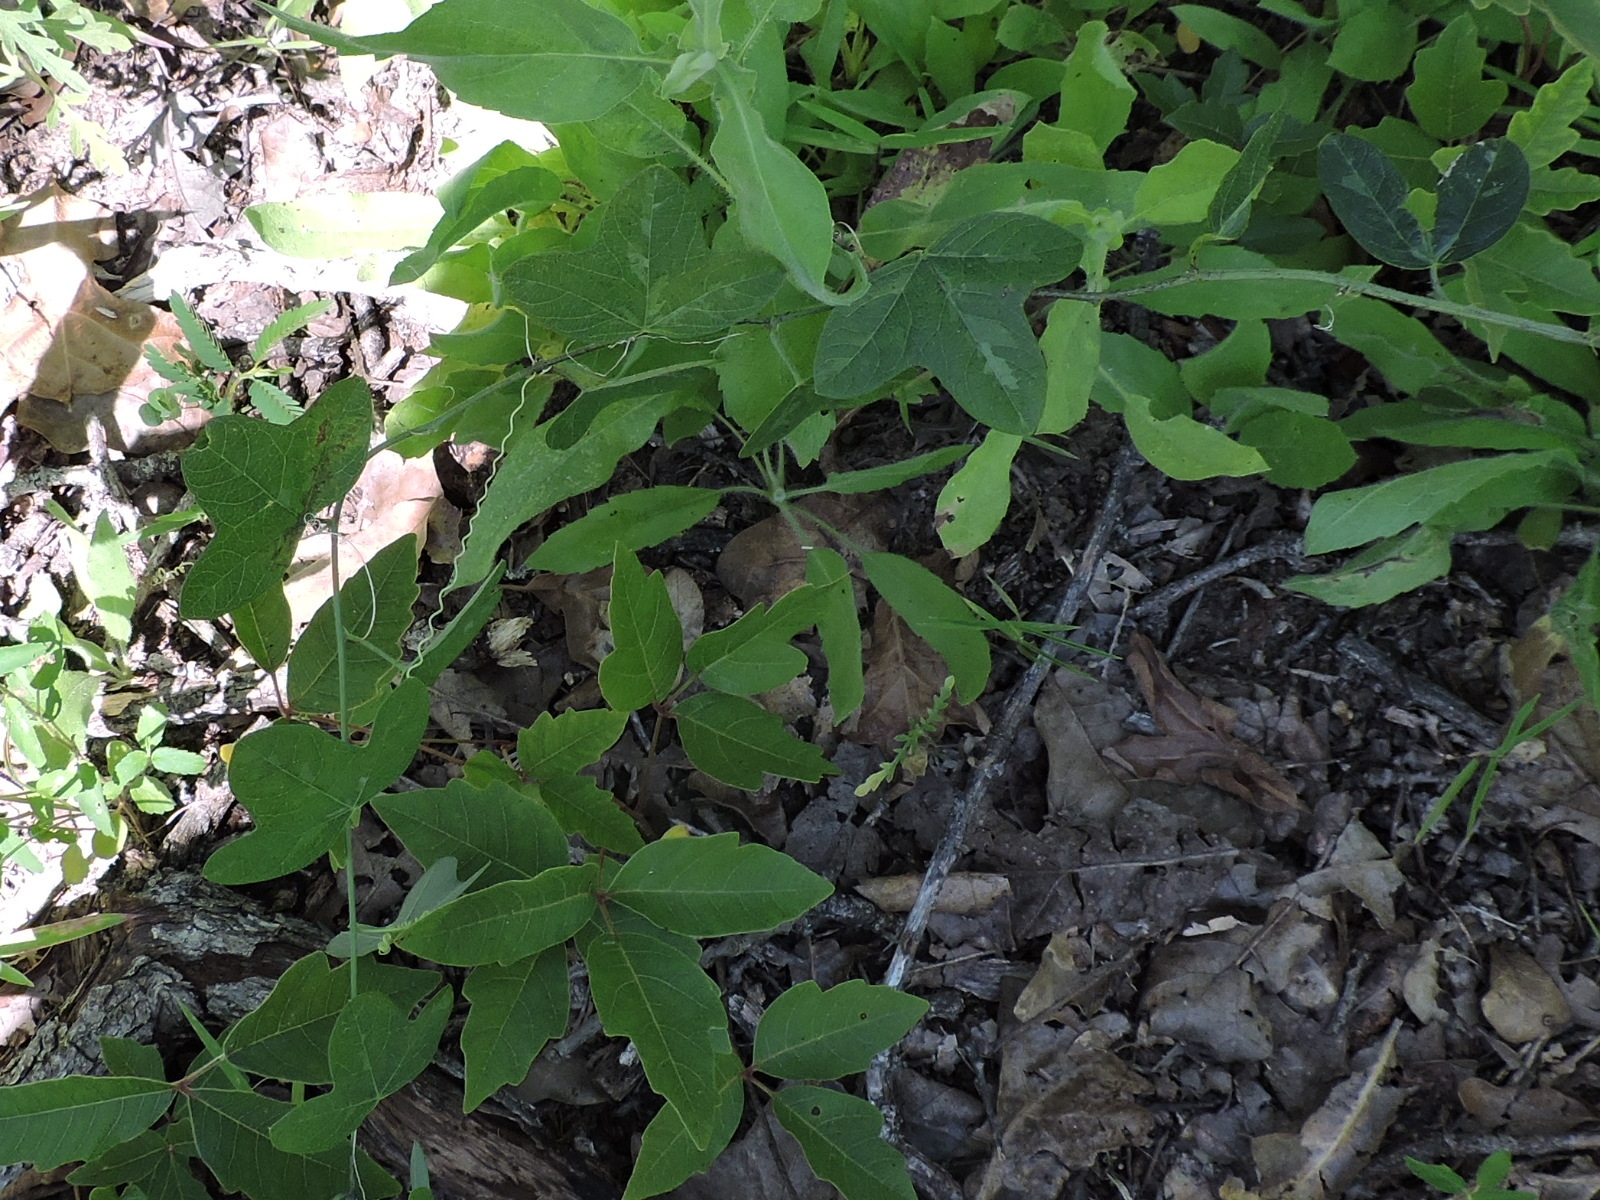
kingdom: Plantae
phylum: Tracheophyta
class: Magnoliopsida
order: Malpighiales
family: Passifloraceae
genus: Passiflora
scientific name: Passiflora lutea
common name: Yellow passionflower
